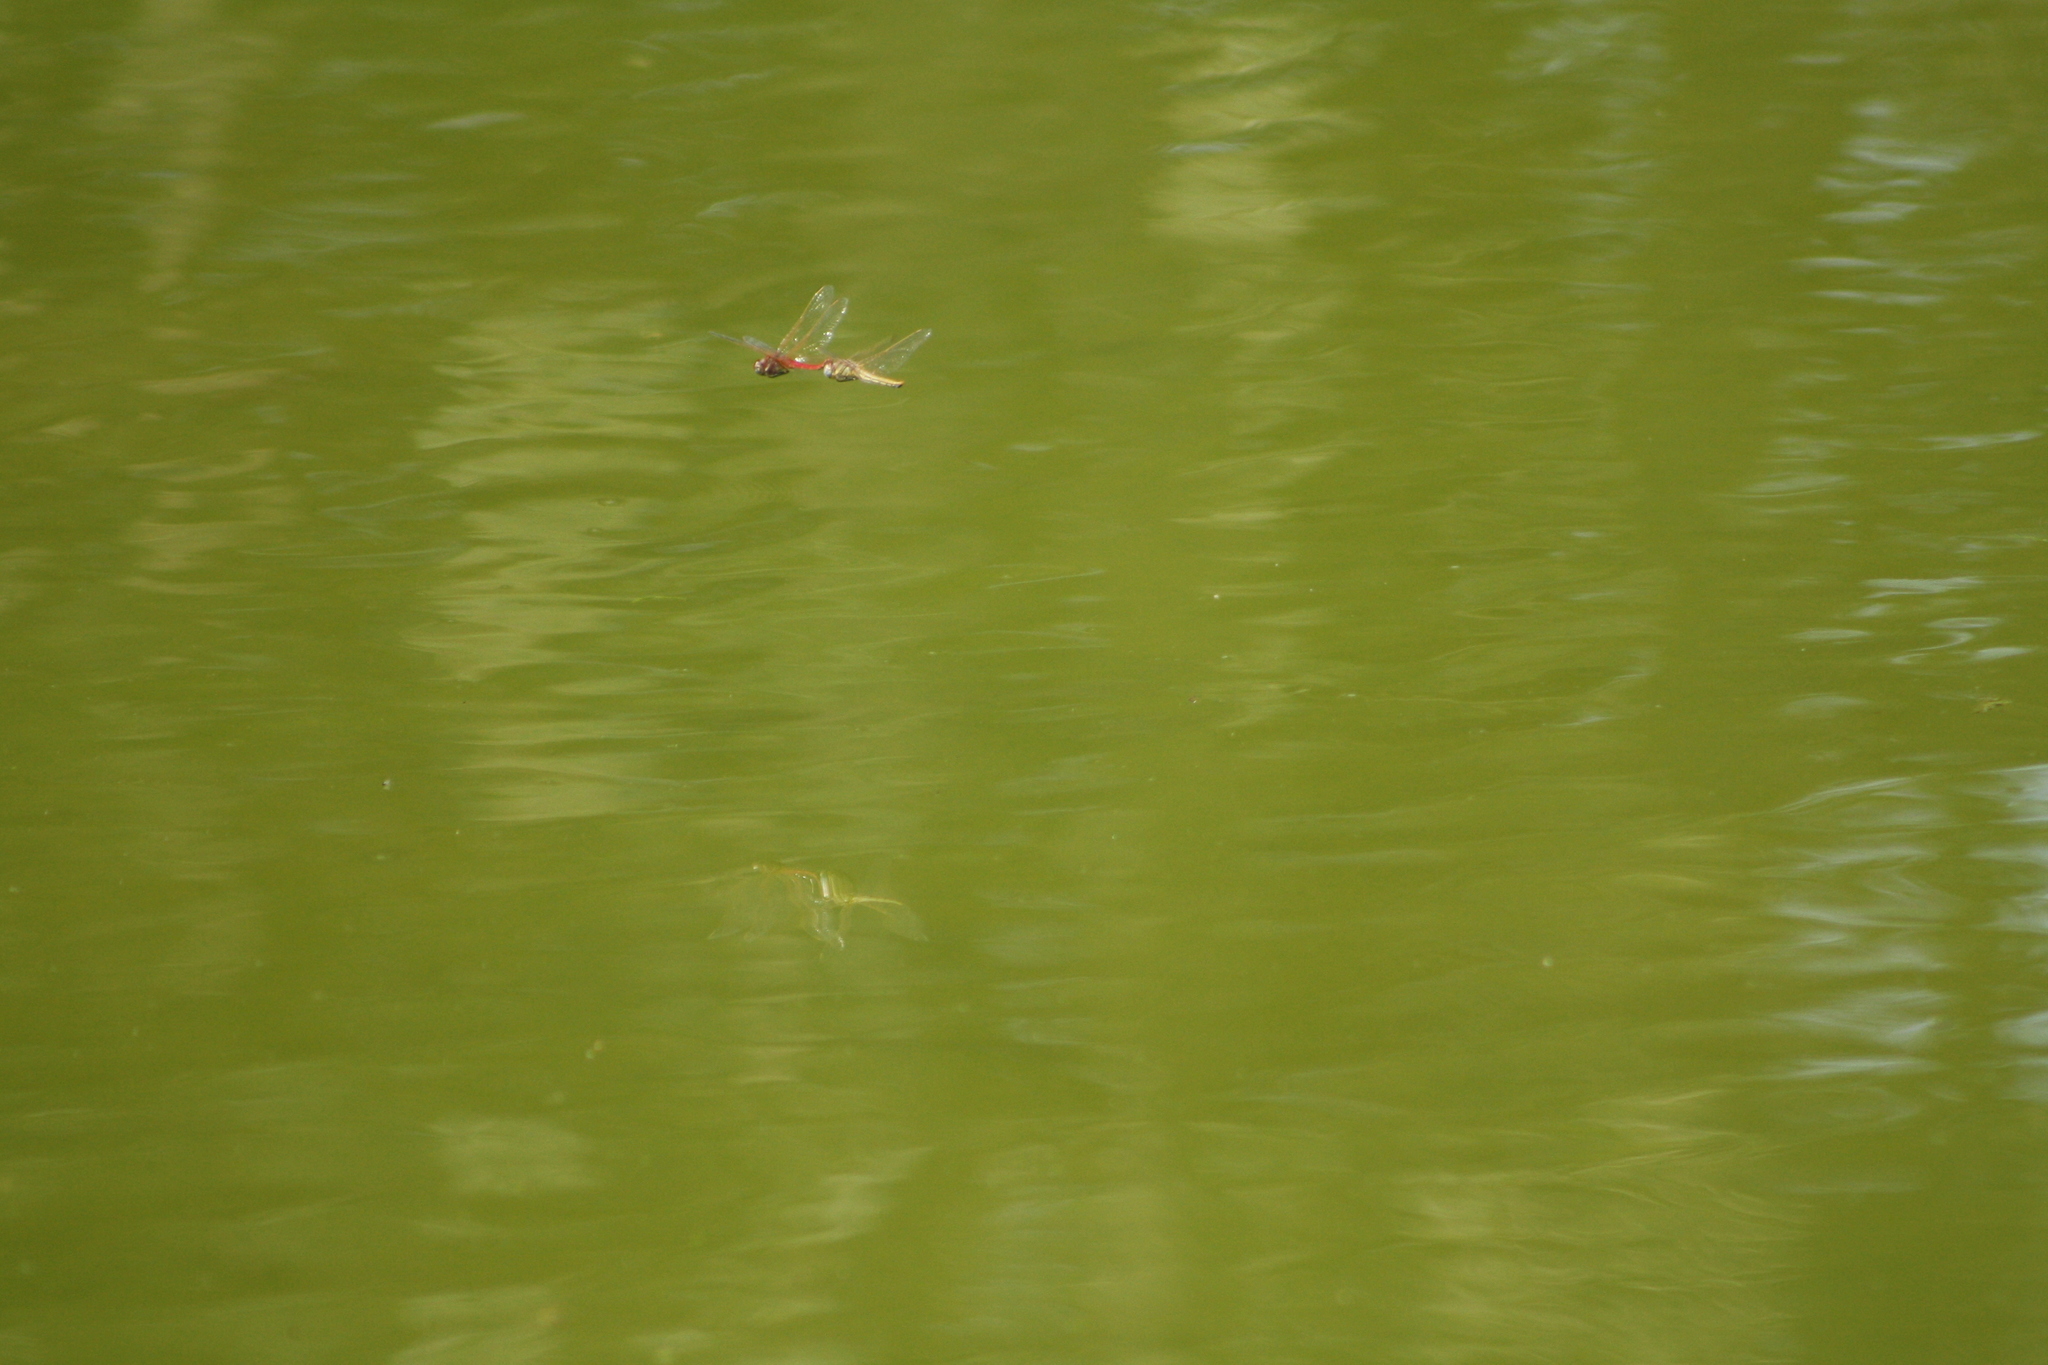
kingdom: Animalia
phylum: Arthropoda
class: Insecta
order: Odonata
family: Libellulidae
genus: Sympetrum
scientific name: Sympetrum fonscolombii
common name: Red-veined darter
